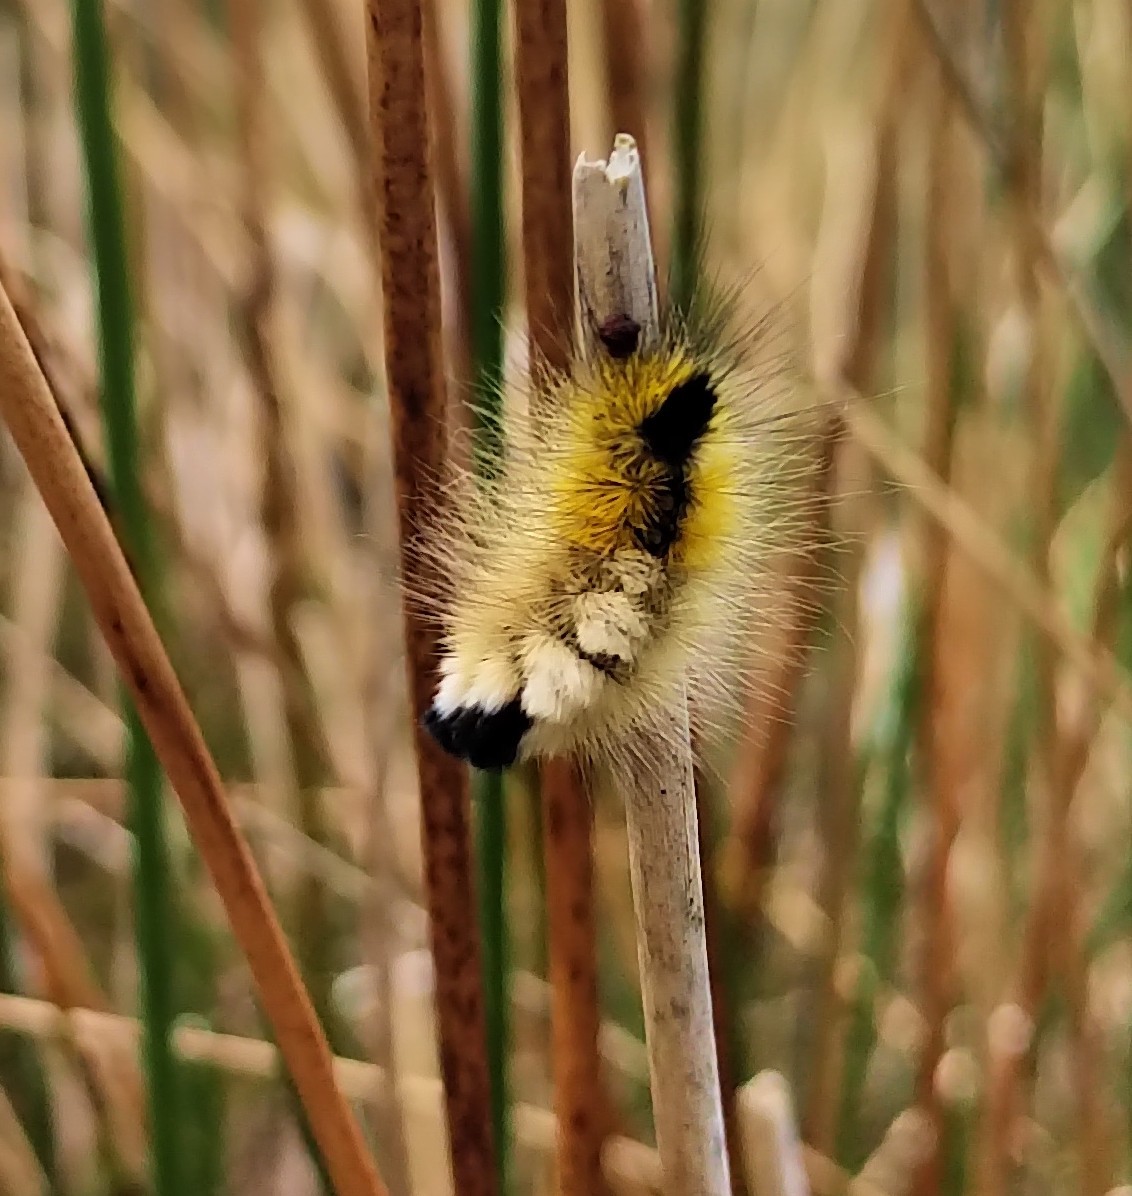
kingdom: Animalia
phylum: Arthropoda
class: Insecta
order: Lepidoptera
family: Erebidae
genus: Calliteara
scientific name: Calliteara Dicallomera fascelina
